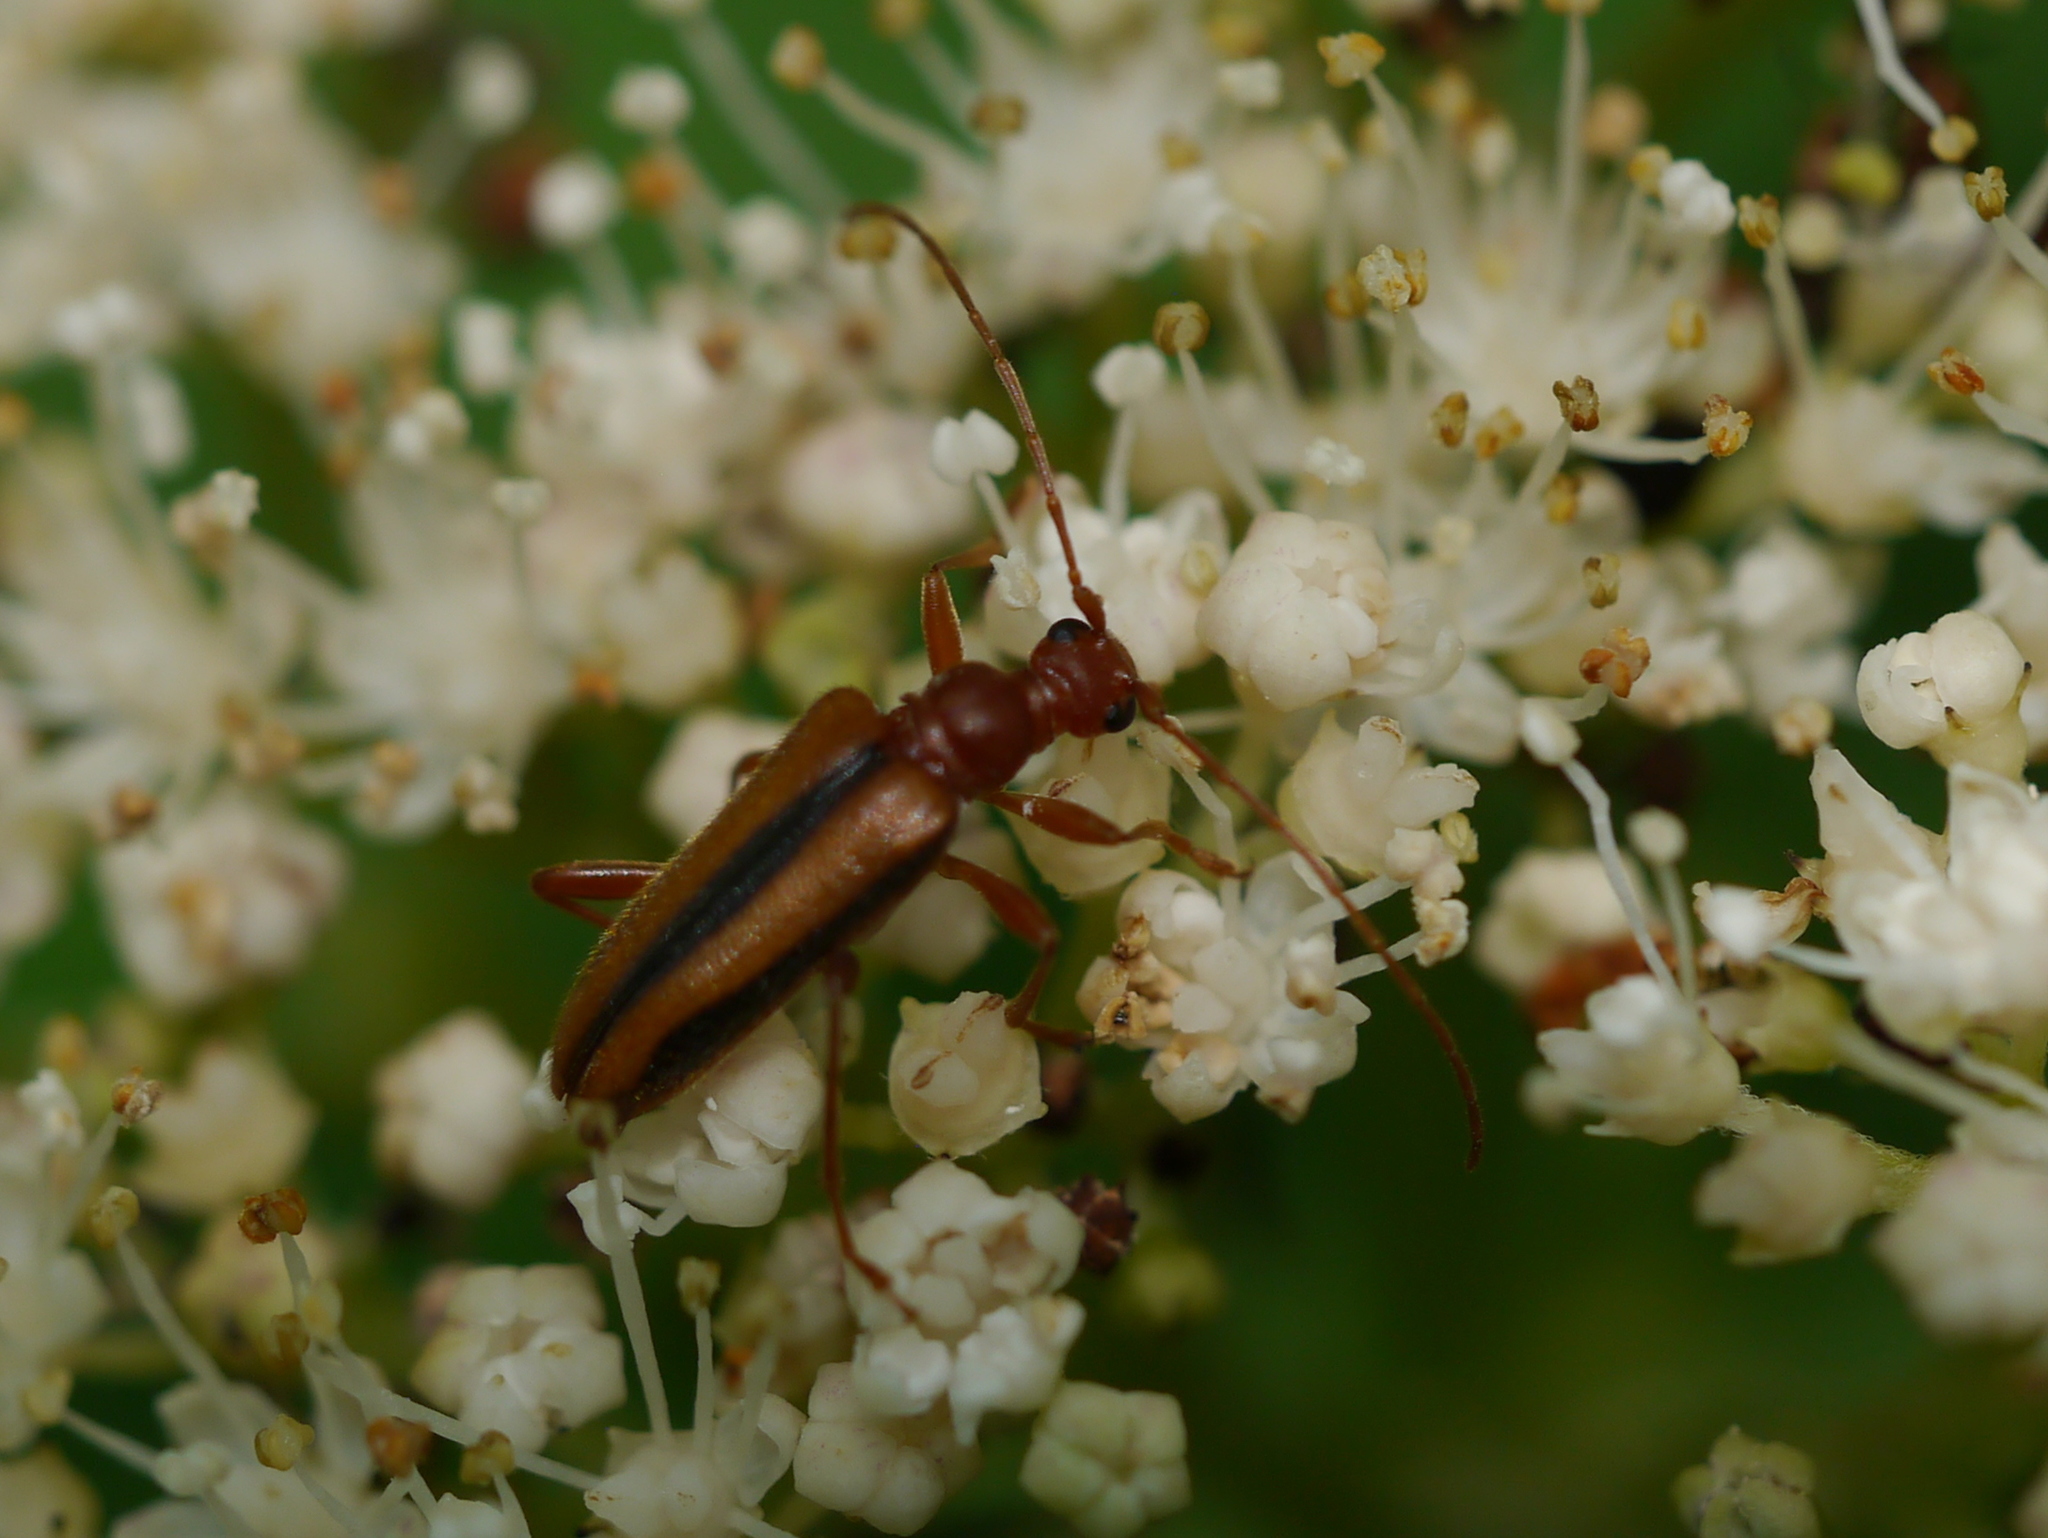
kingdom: Animalia
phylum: Arthropoda
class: Insecta
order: Coleoptera
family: Cerambycidae
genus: Pidonia
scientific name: Pidonia aurata
